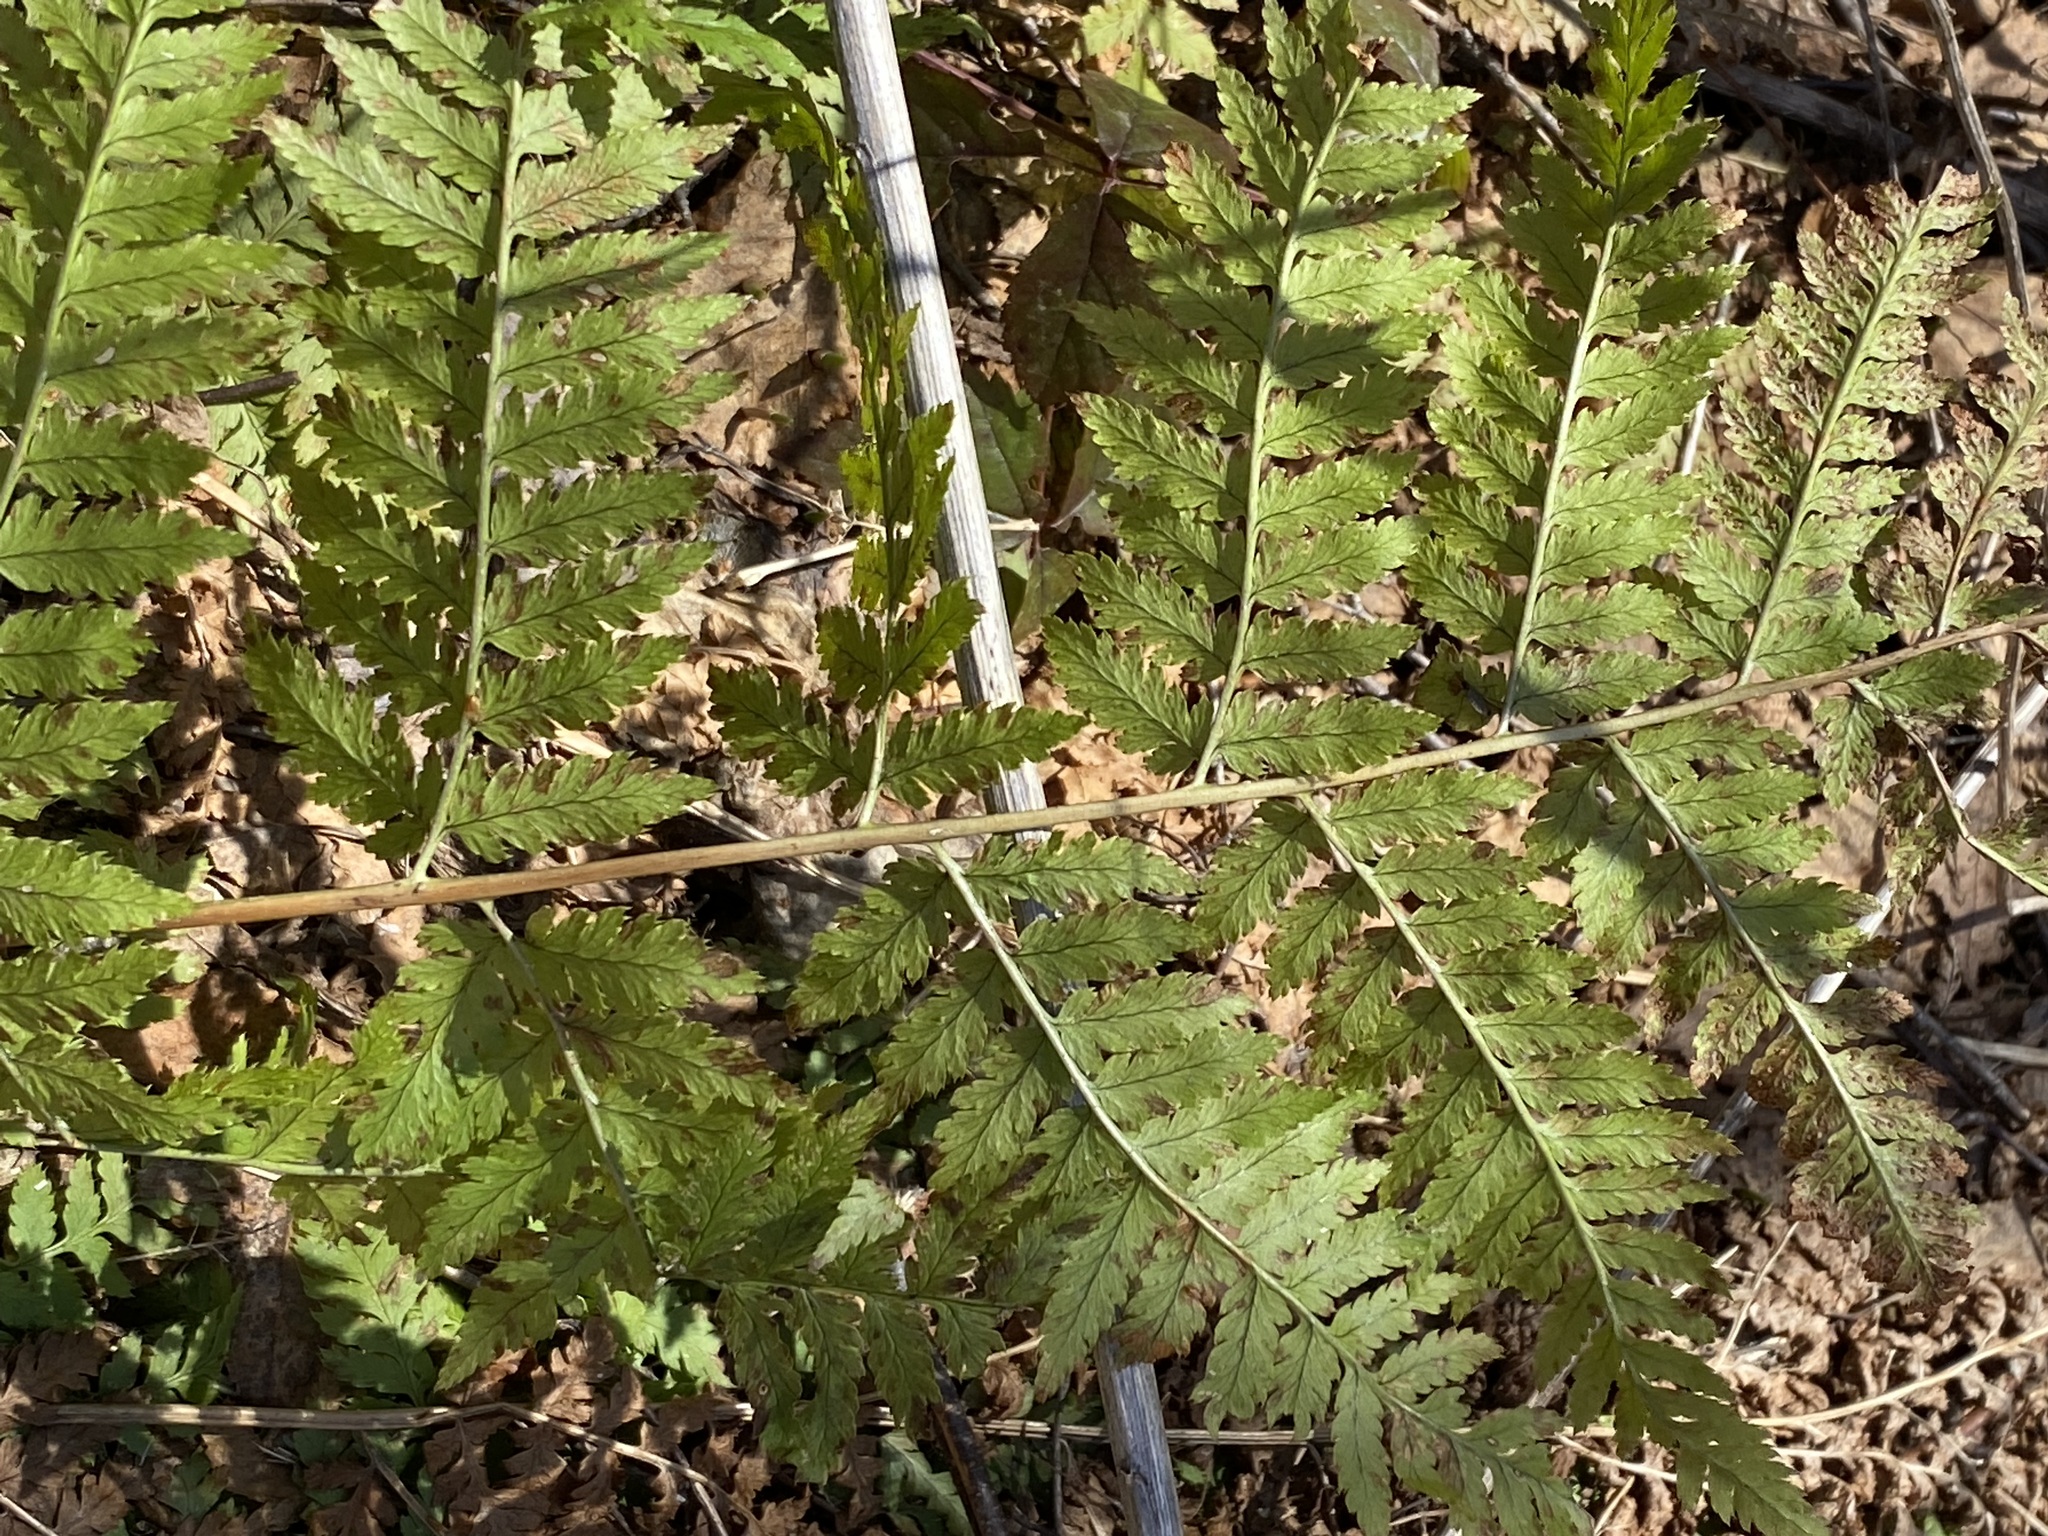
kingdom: Plantae
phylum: Tracheophyta
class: Polypodiopsida
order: Polypodiales
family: Dryopteridaceae
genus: Dryopteris
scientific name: Dryopteris intermedia
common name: Evergreen wood fern
